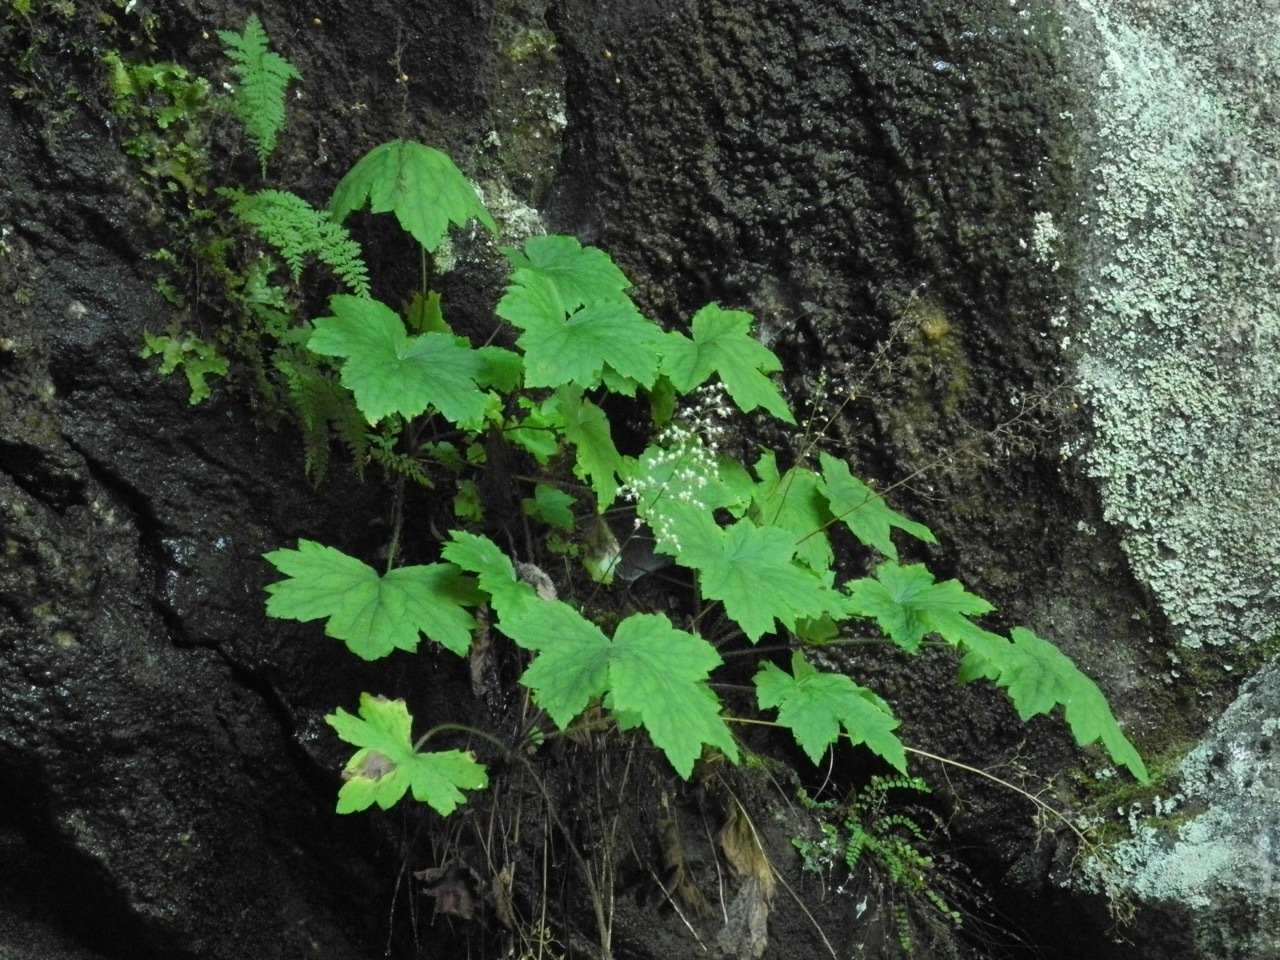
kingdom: Plantae
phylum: Tracheophyta
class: Magnoliopsida
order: Saxifragales
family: Saxifragaceae
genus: Heuchera
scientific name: Heuchera villosa
